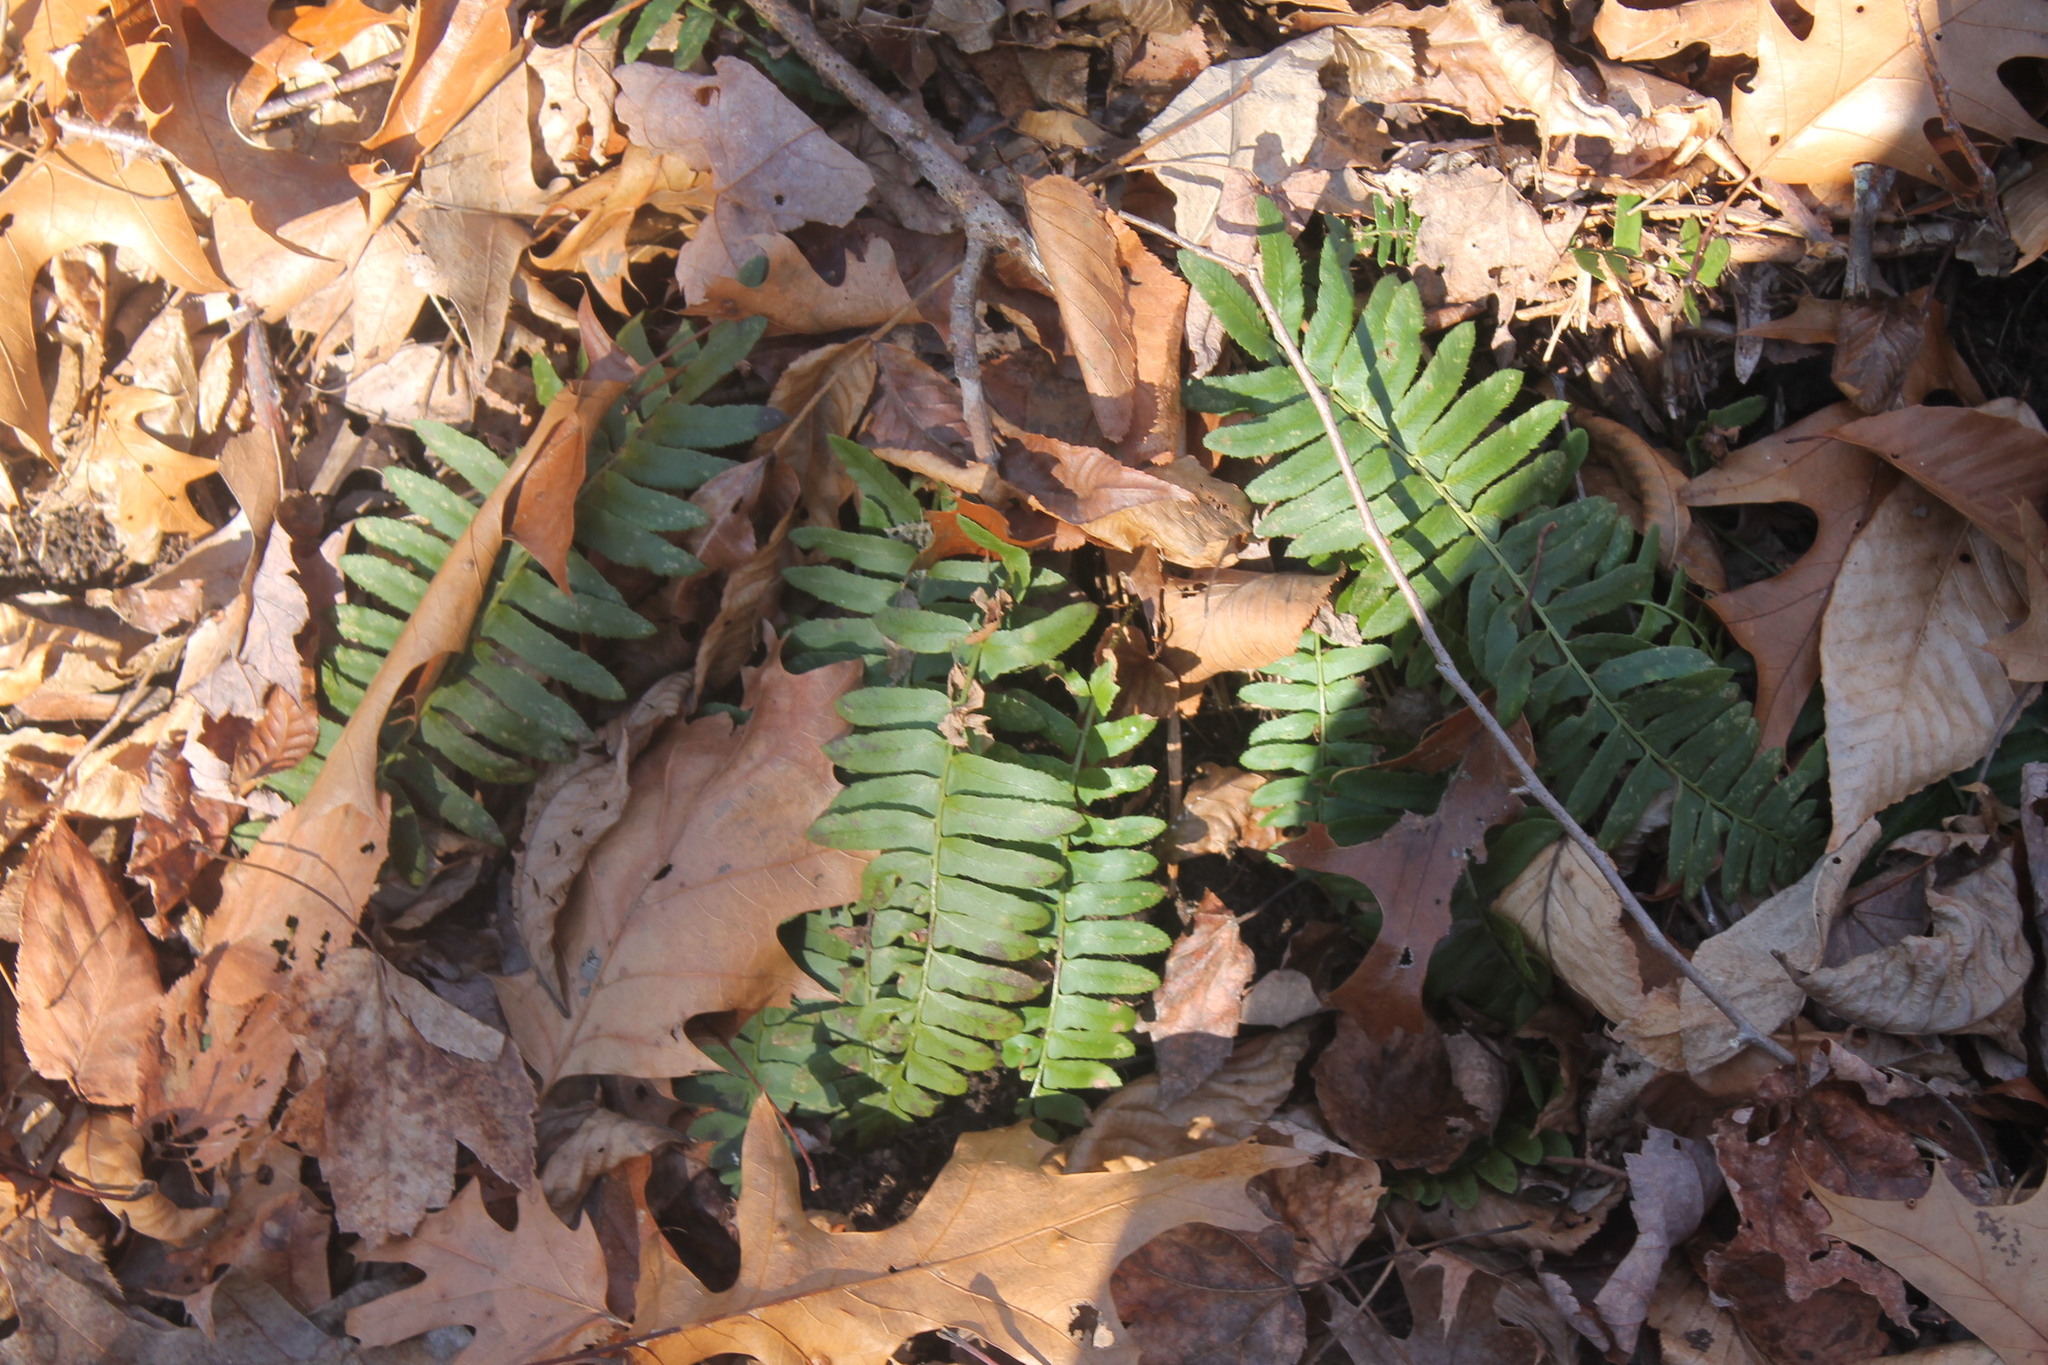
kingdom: Plantae
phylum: Tracheophyta
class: Polypodiopsida
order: Polypodiales
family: Dryopteridaceae
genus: Polystichum
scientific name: Polystichum acrostichoides
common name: Christmas fern
